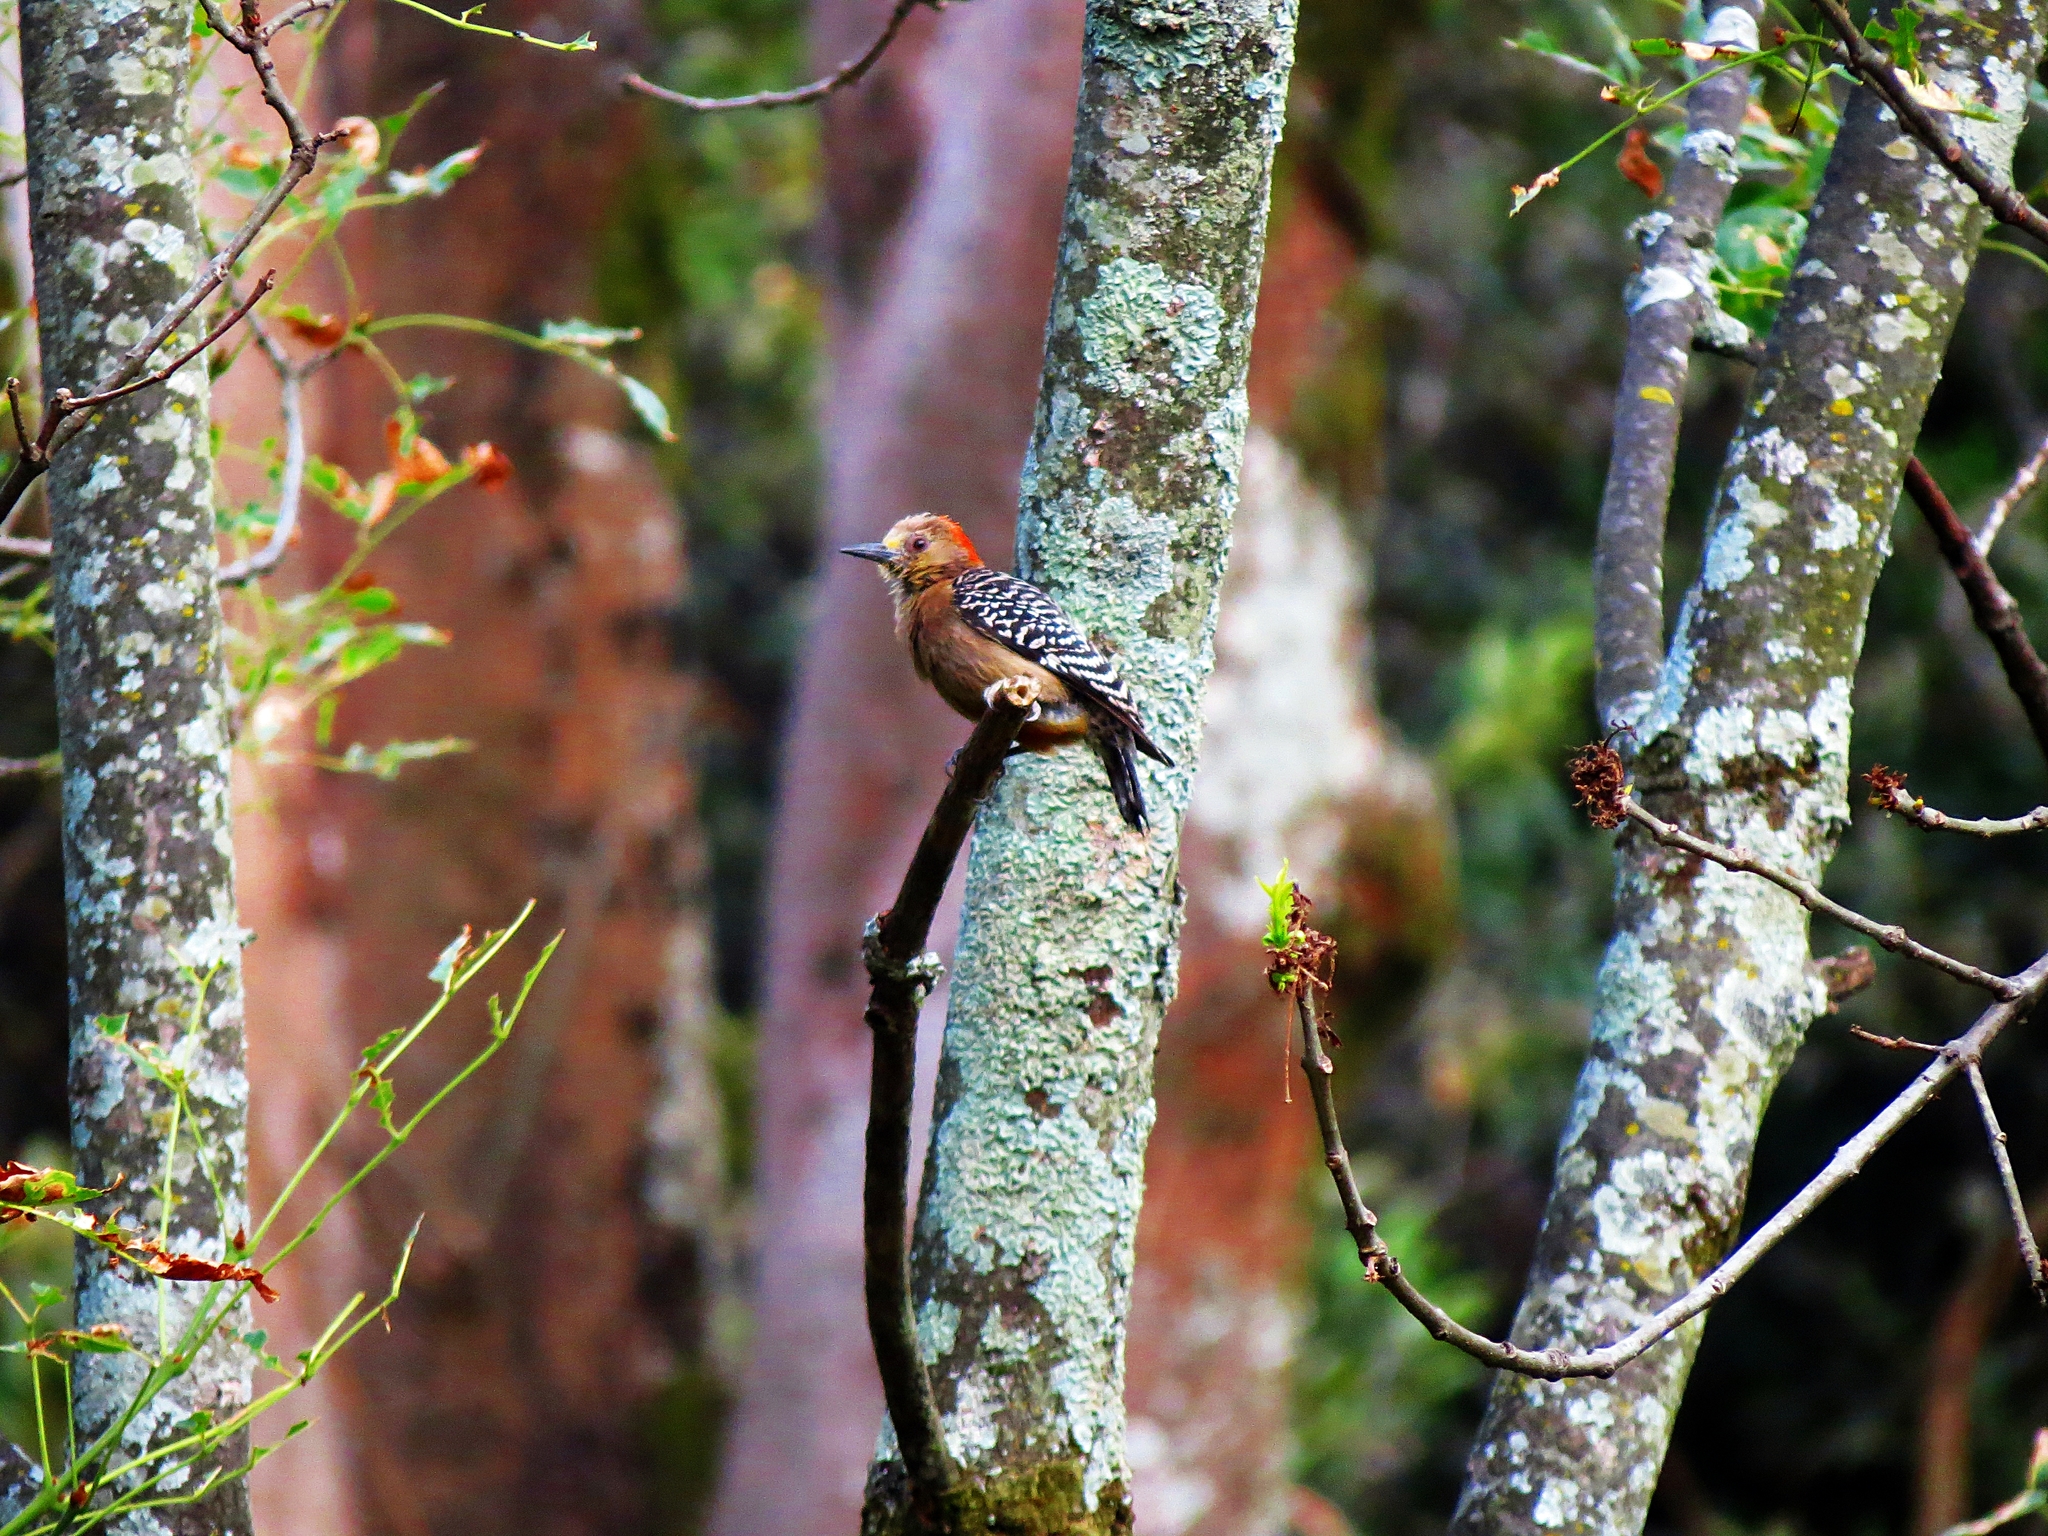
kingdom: Animalia
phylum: Chordata
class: Aves
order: Piciformes
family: Picidae
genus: Melanerpes
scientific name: Melanerpes rubricapillus
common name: Red-crowned woodpecker
